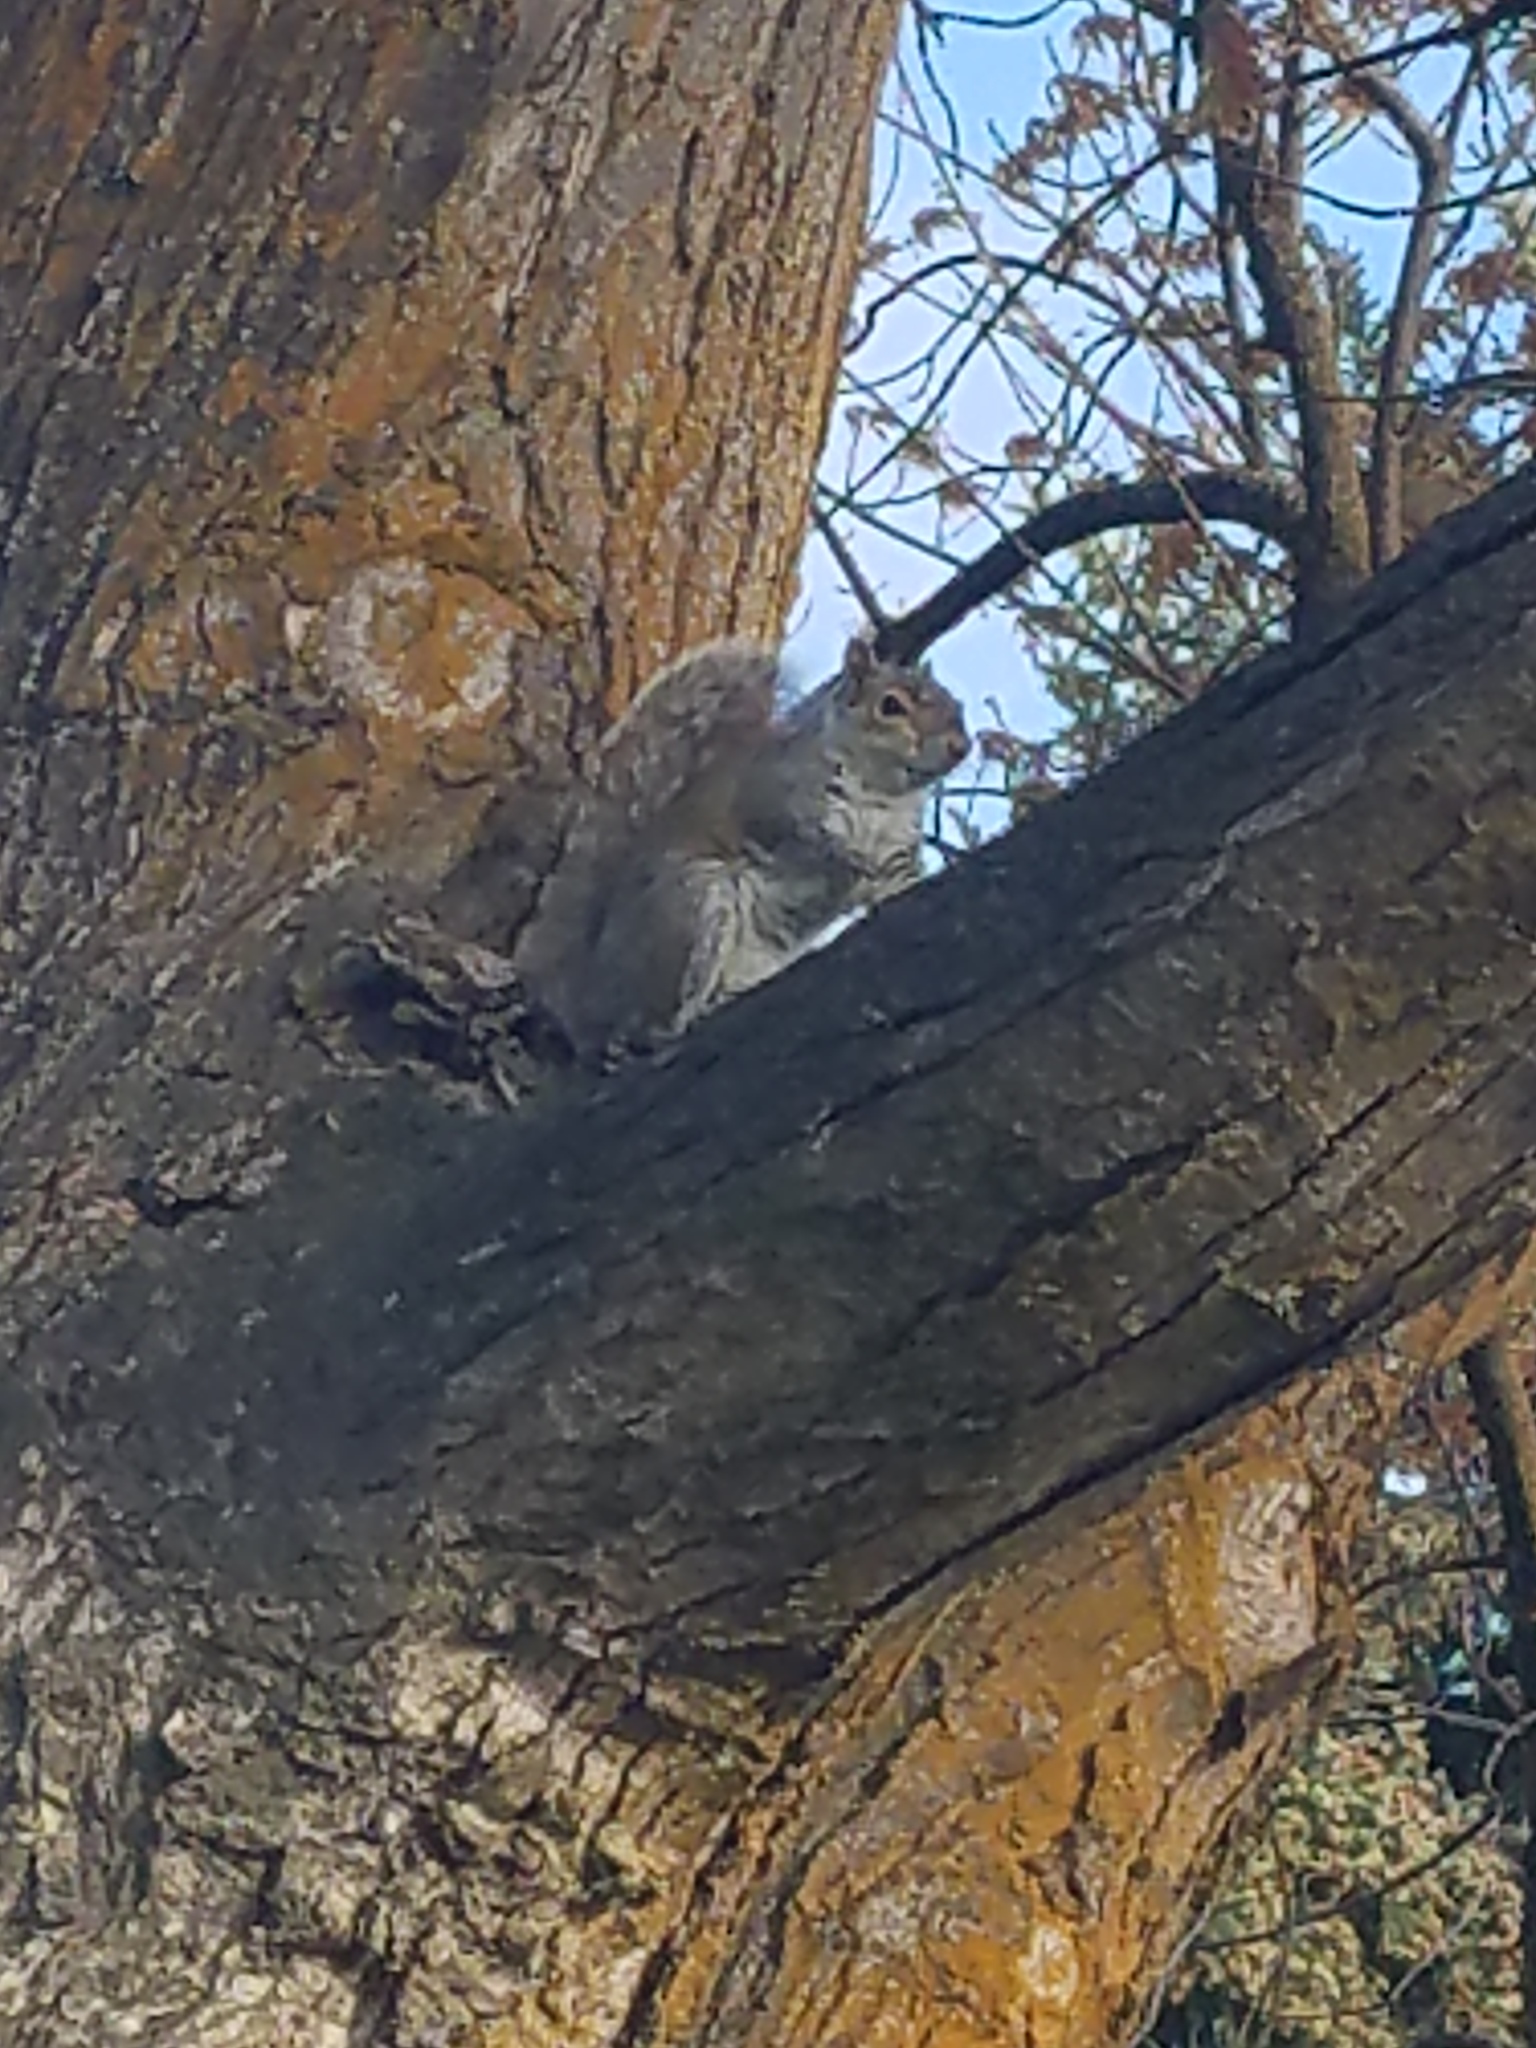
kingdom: Animalia
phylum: Chordata
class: Mammalia
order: Rodentia
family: Sciuridae
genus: Sciurus
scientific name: Sciurus carolinensis
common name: Eastern gray squirrel
